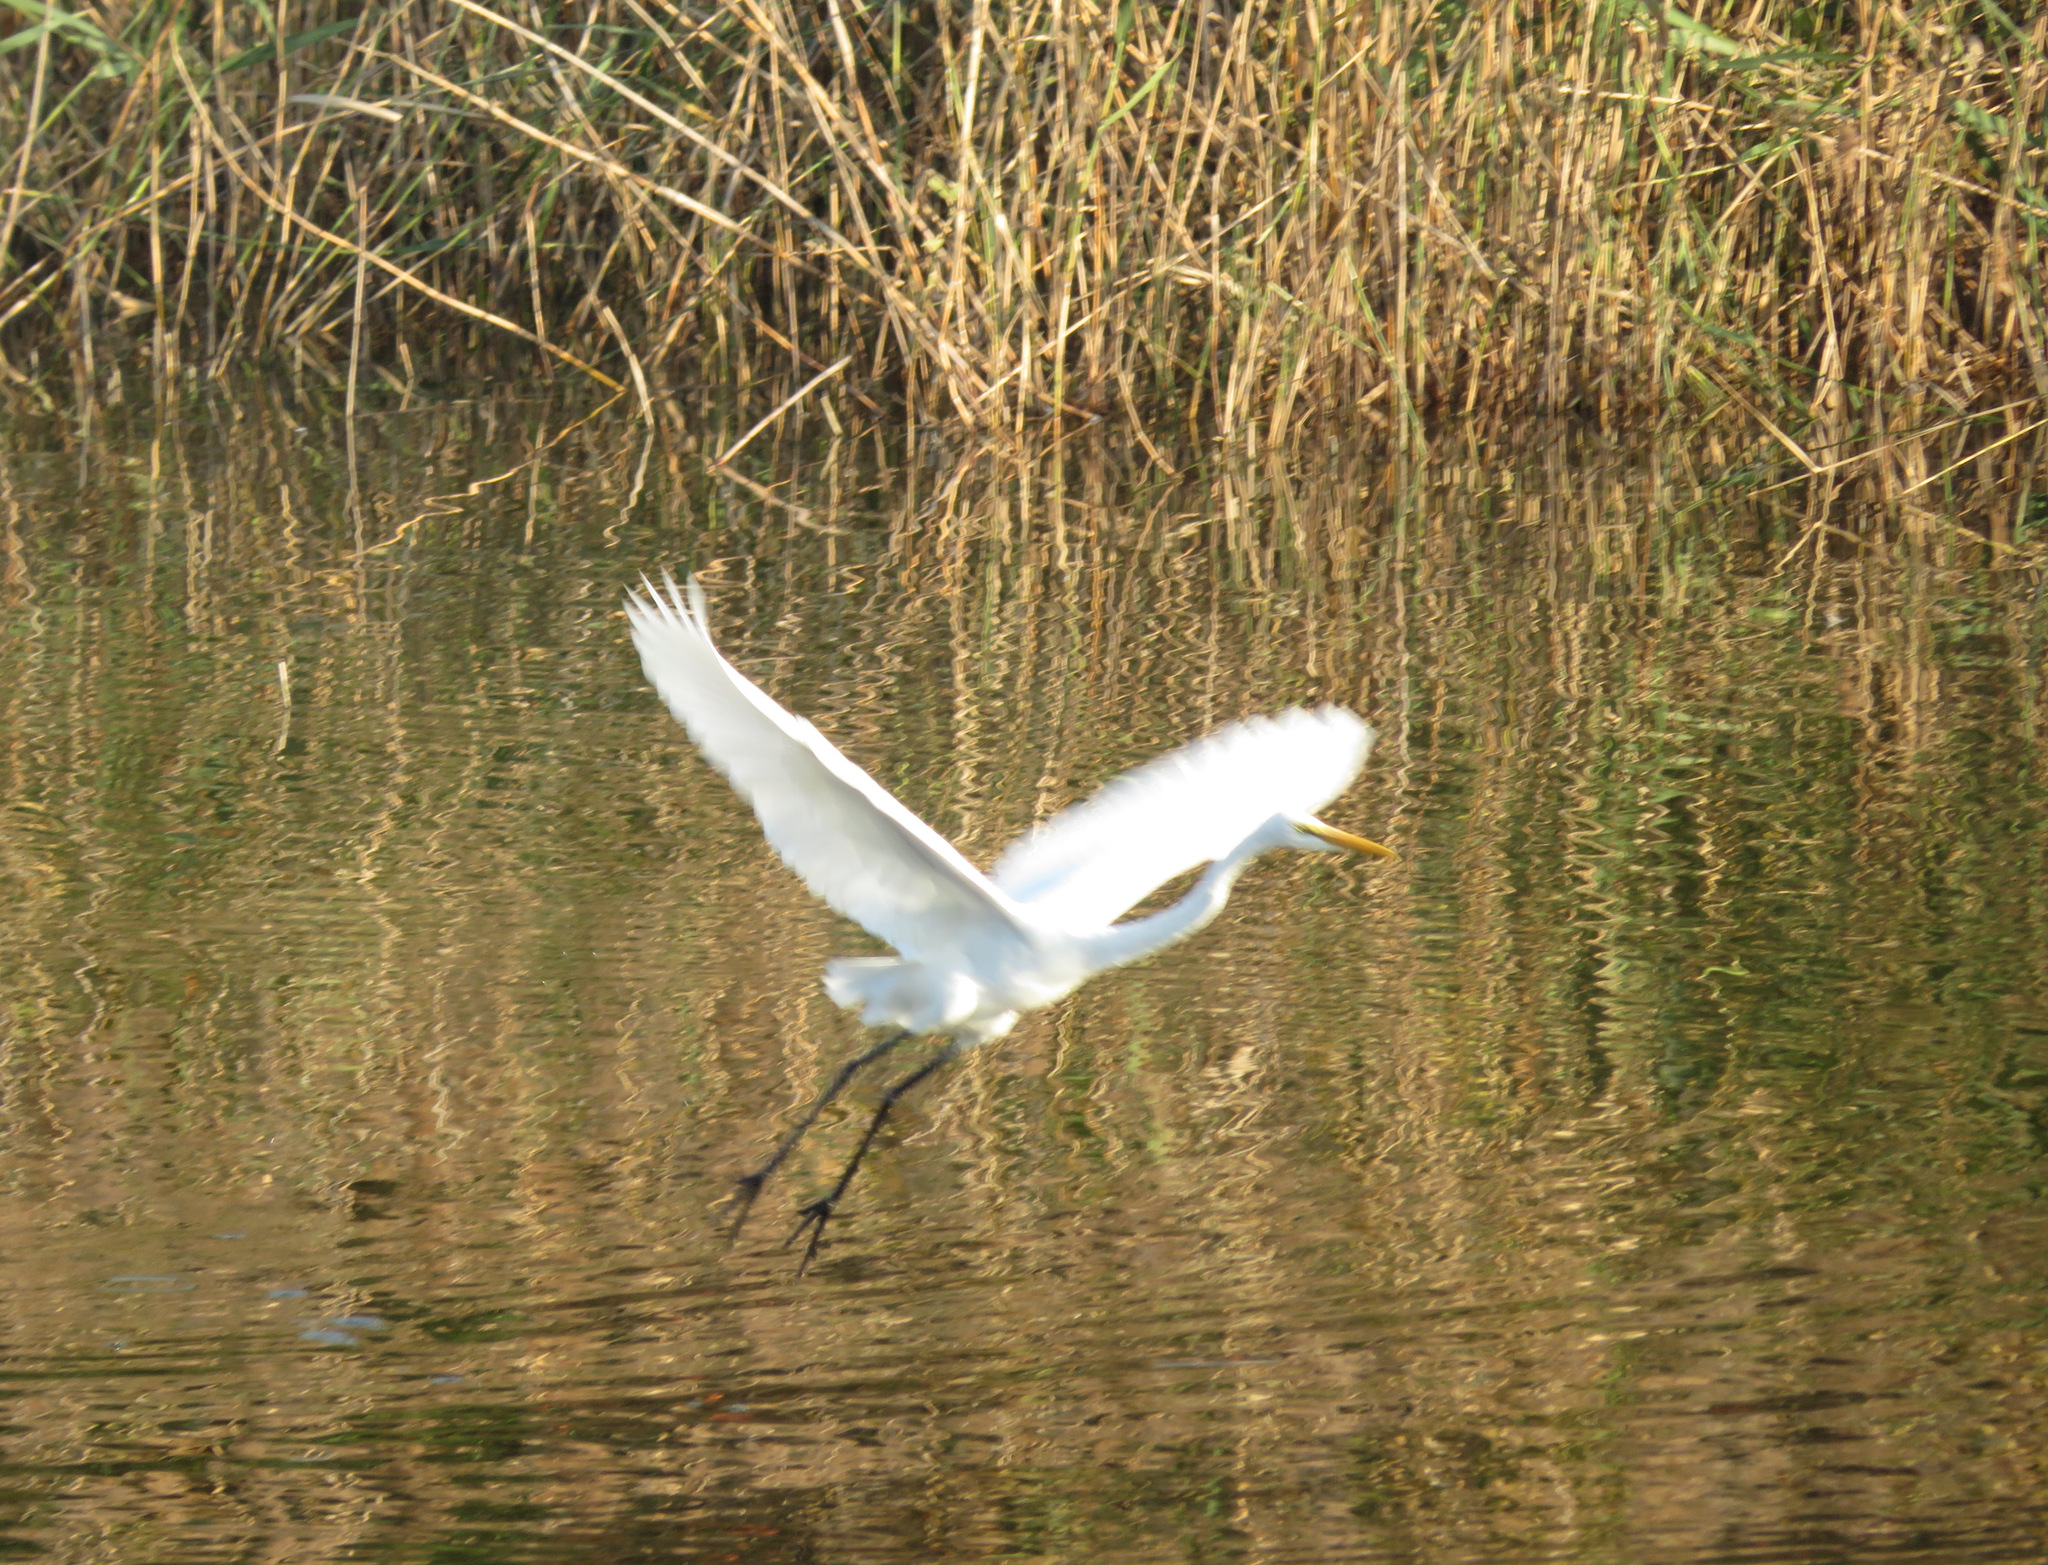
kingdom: Animalia
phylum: Chordata
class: Aves
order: Pelecaniformes
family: Ardeidae
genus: Ardea
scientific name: Ardea alba
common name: Great egret
